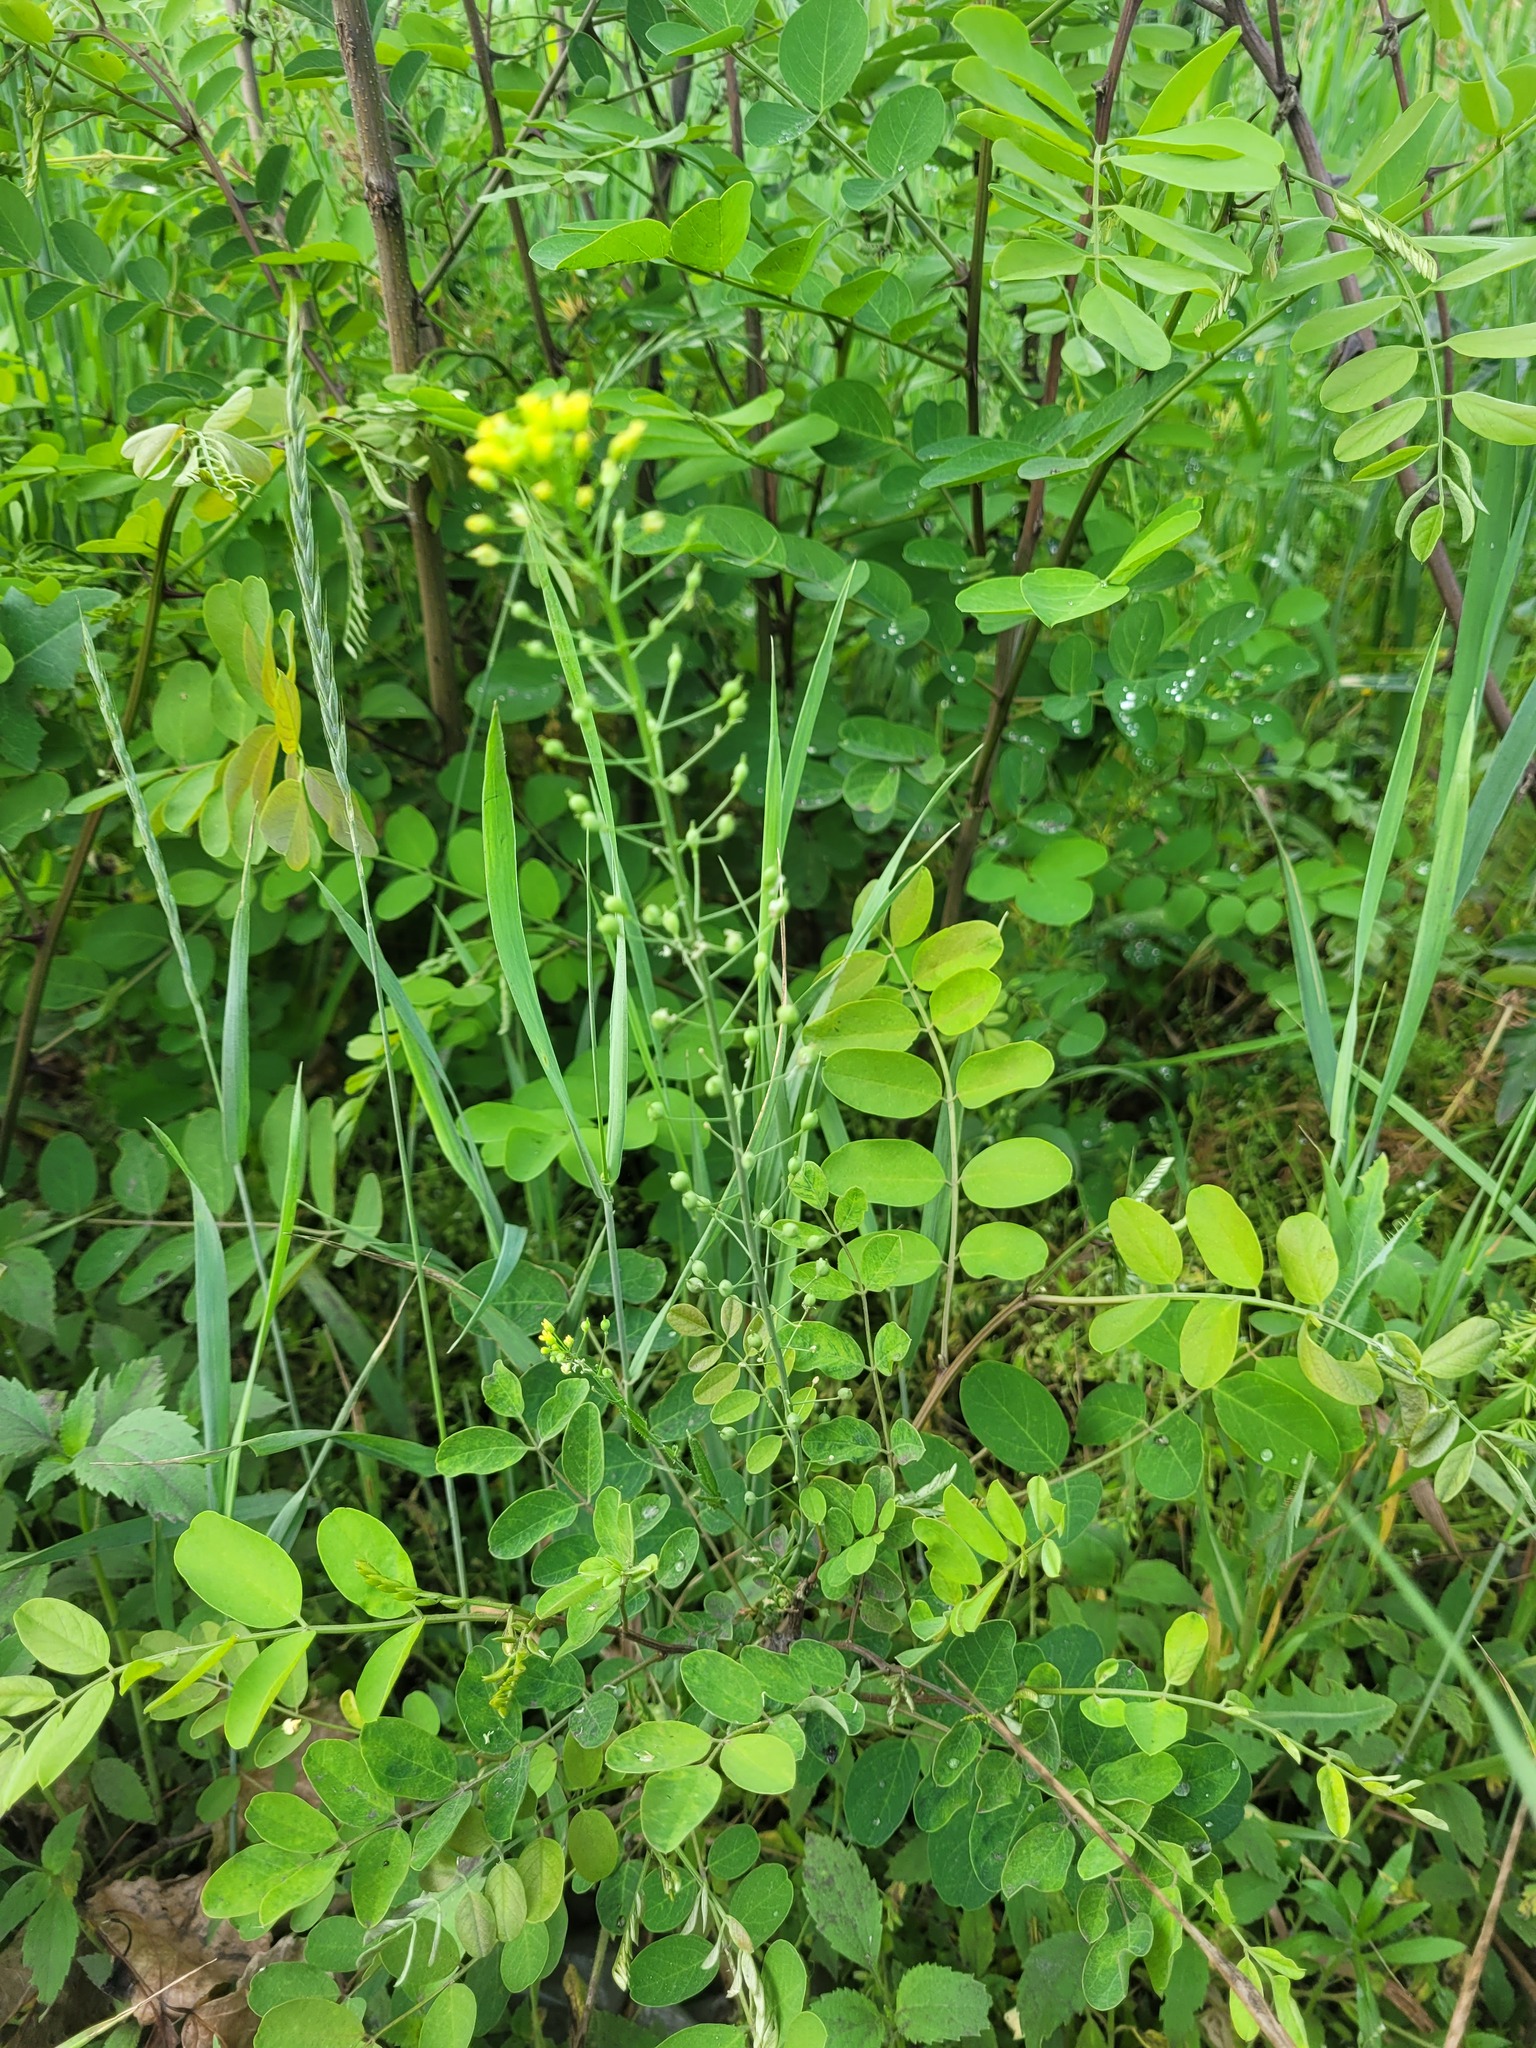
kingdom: Plantae
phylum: Tracheophyta
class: Magnoliopsida
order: Brassicales
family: Brassicaceae
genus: Camelina
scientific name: Camelina microcarpa
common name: Lesser gold-of-pleasure
